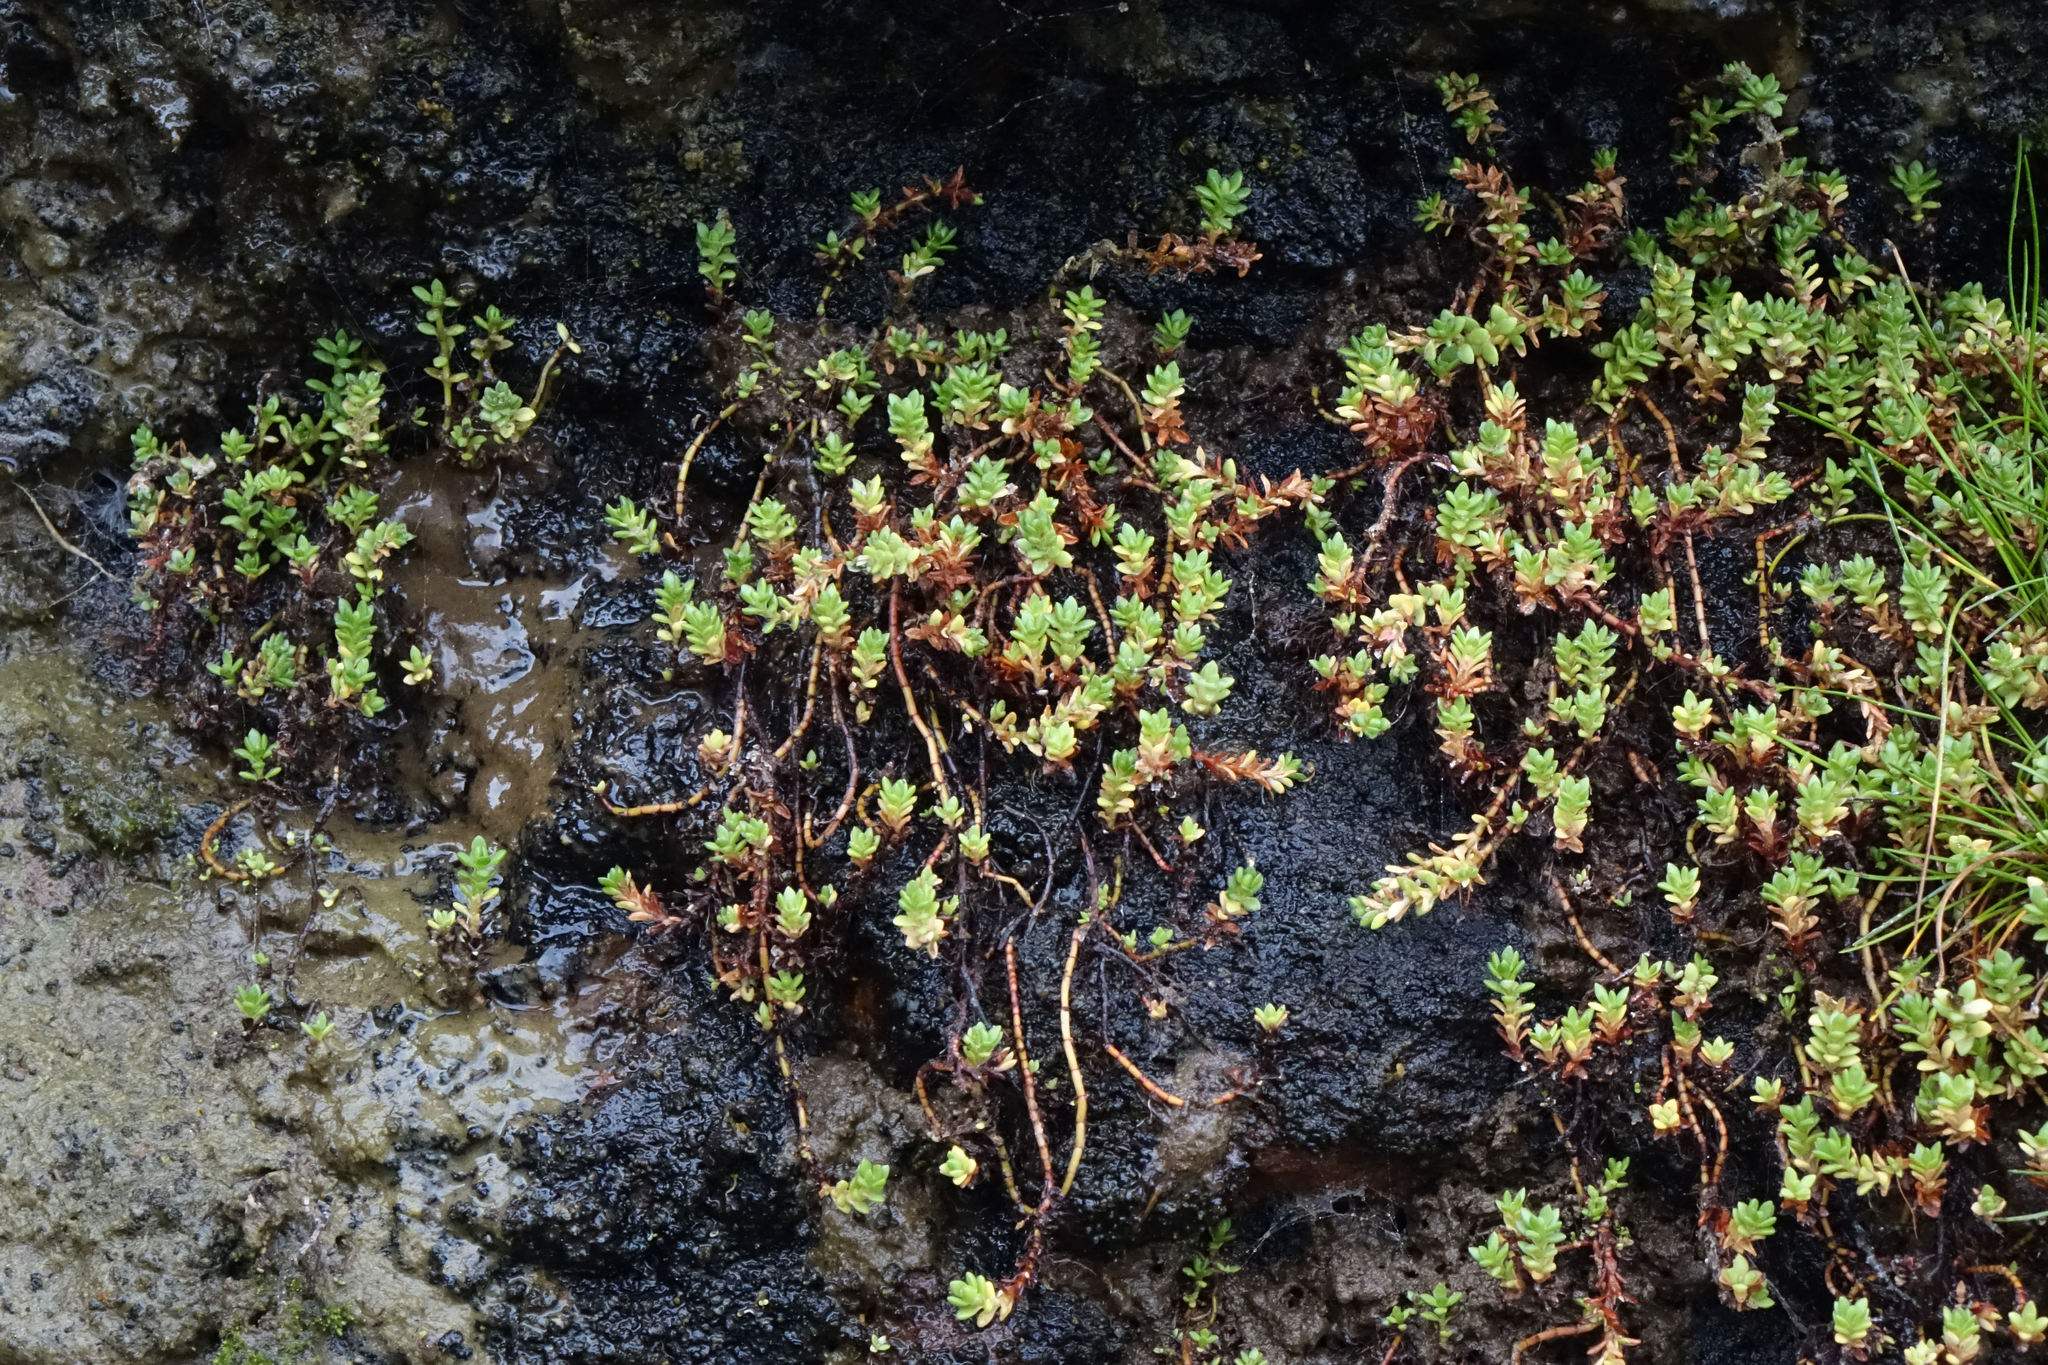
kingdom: Plantae
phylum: Tracheophyta
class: Magnoliopsida
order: Saxifragales
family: Crassulaceae
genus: Crassula
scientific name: Crassula moschata
